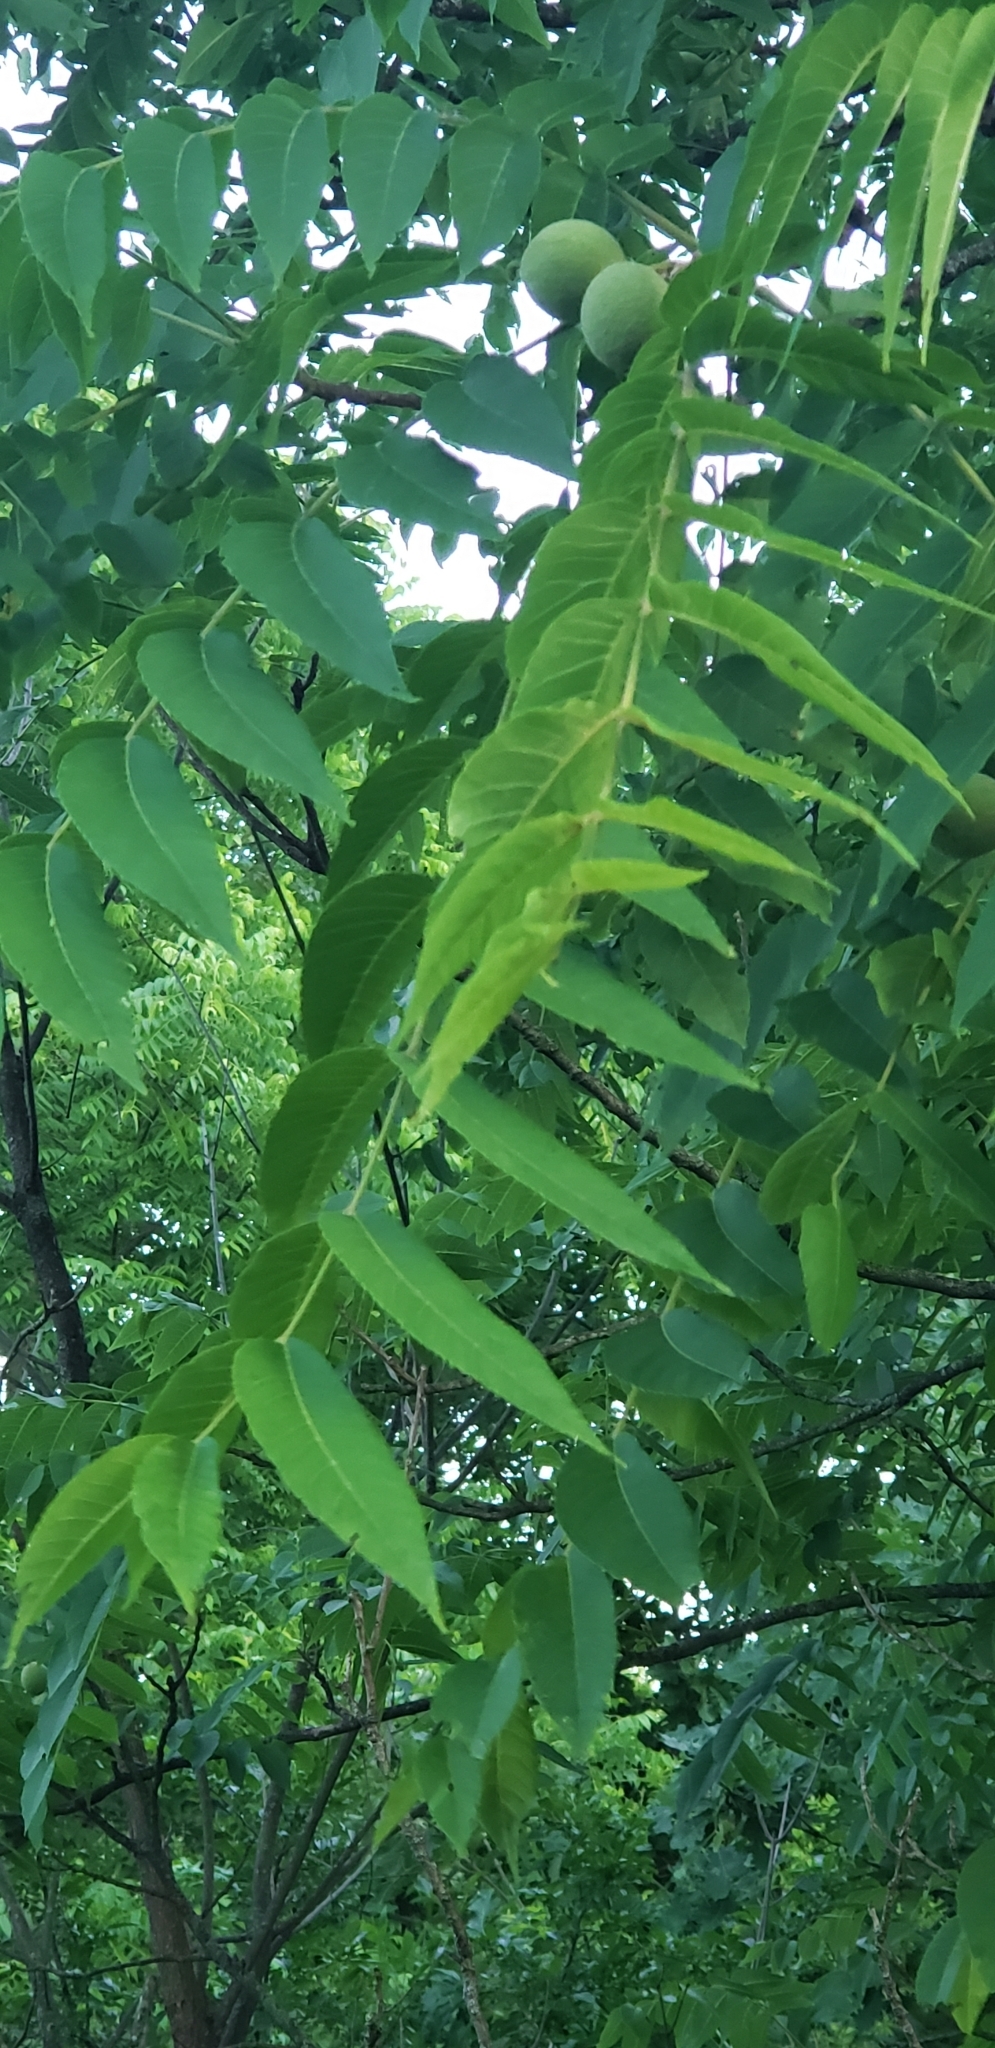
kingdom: Plantae
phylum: Tracheophyta
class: Magnoliopsida
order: Fagales
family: Juglandaceae
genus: Juglans
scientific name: Juglans nigra
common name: Black walnut
